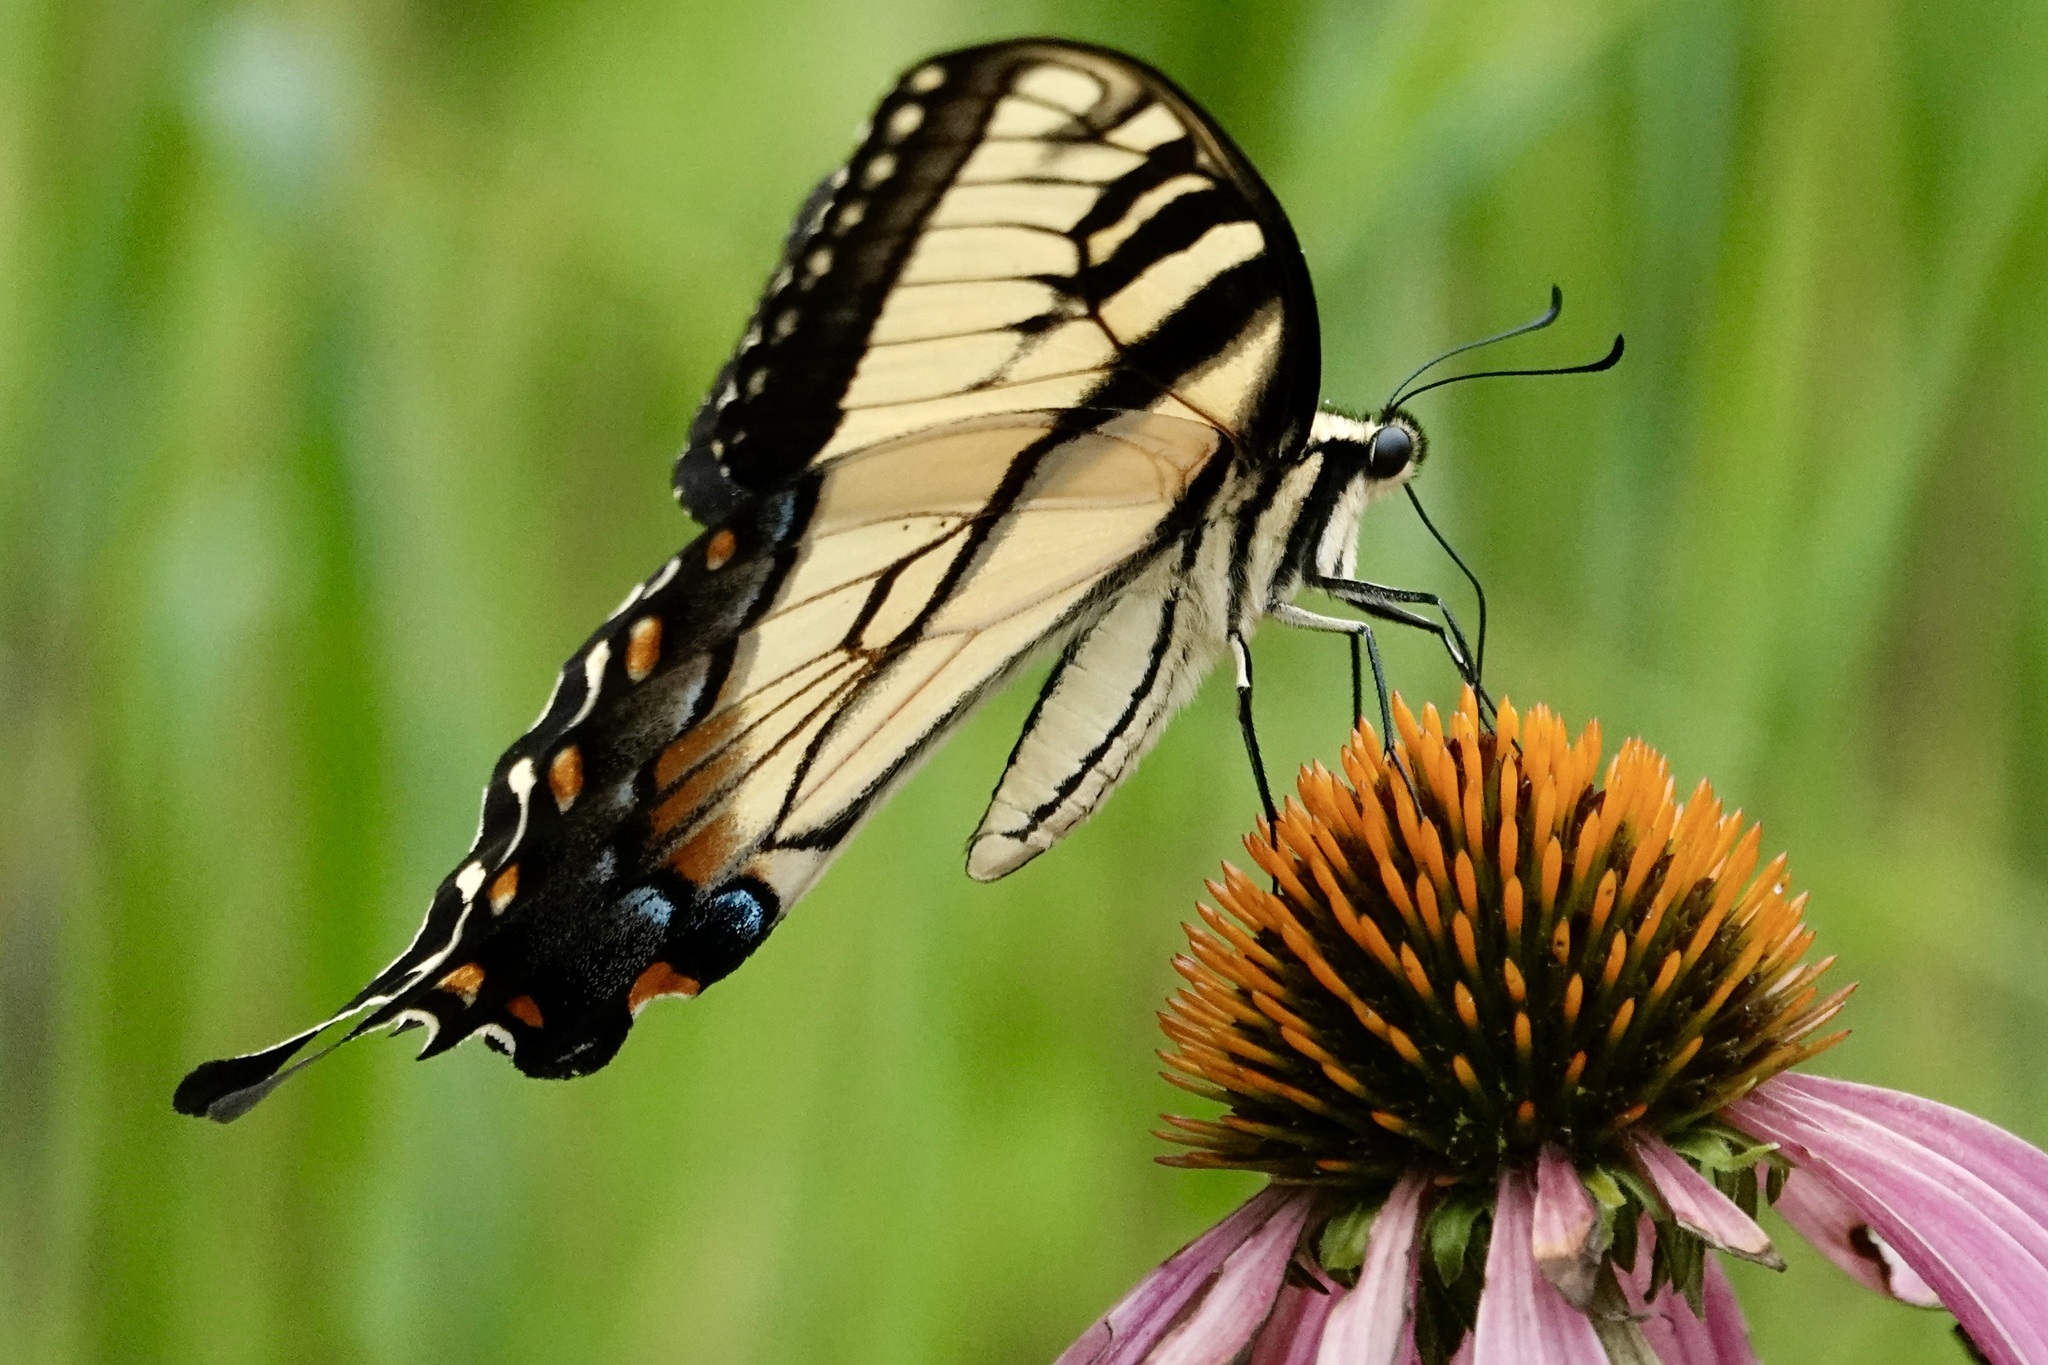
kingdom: Animalia
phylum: Arthropoda
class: Insecta
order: Lepidoptera
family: Papilionidae
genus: Papilio
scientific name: Papilio glaucus
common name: Tiger swallowtail
